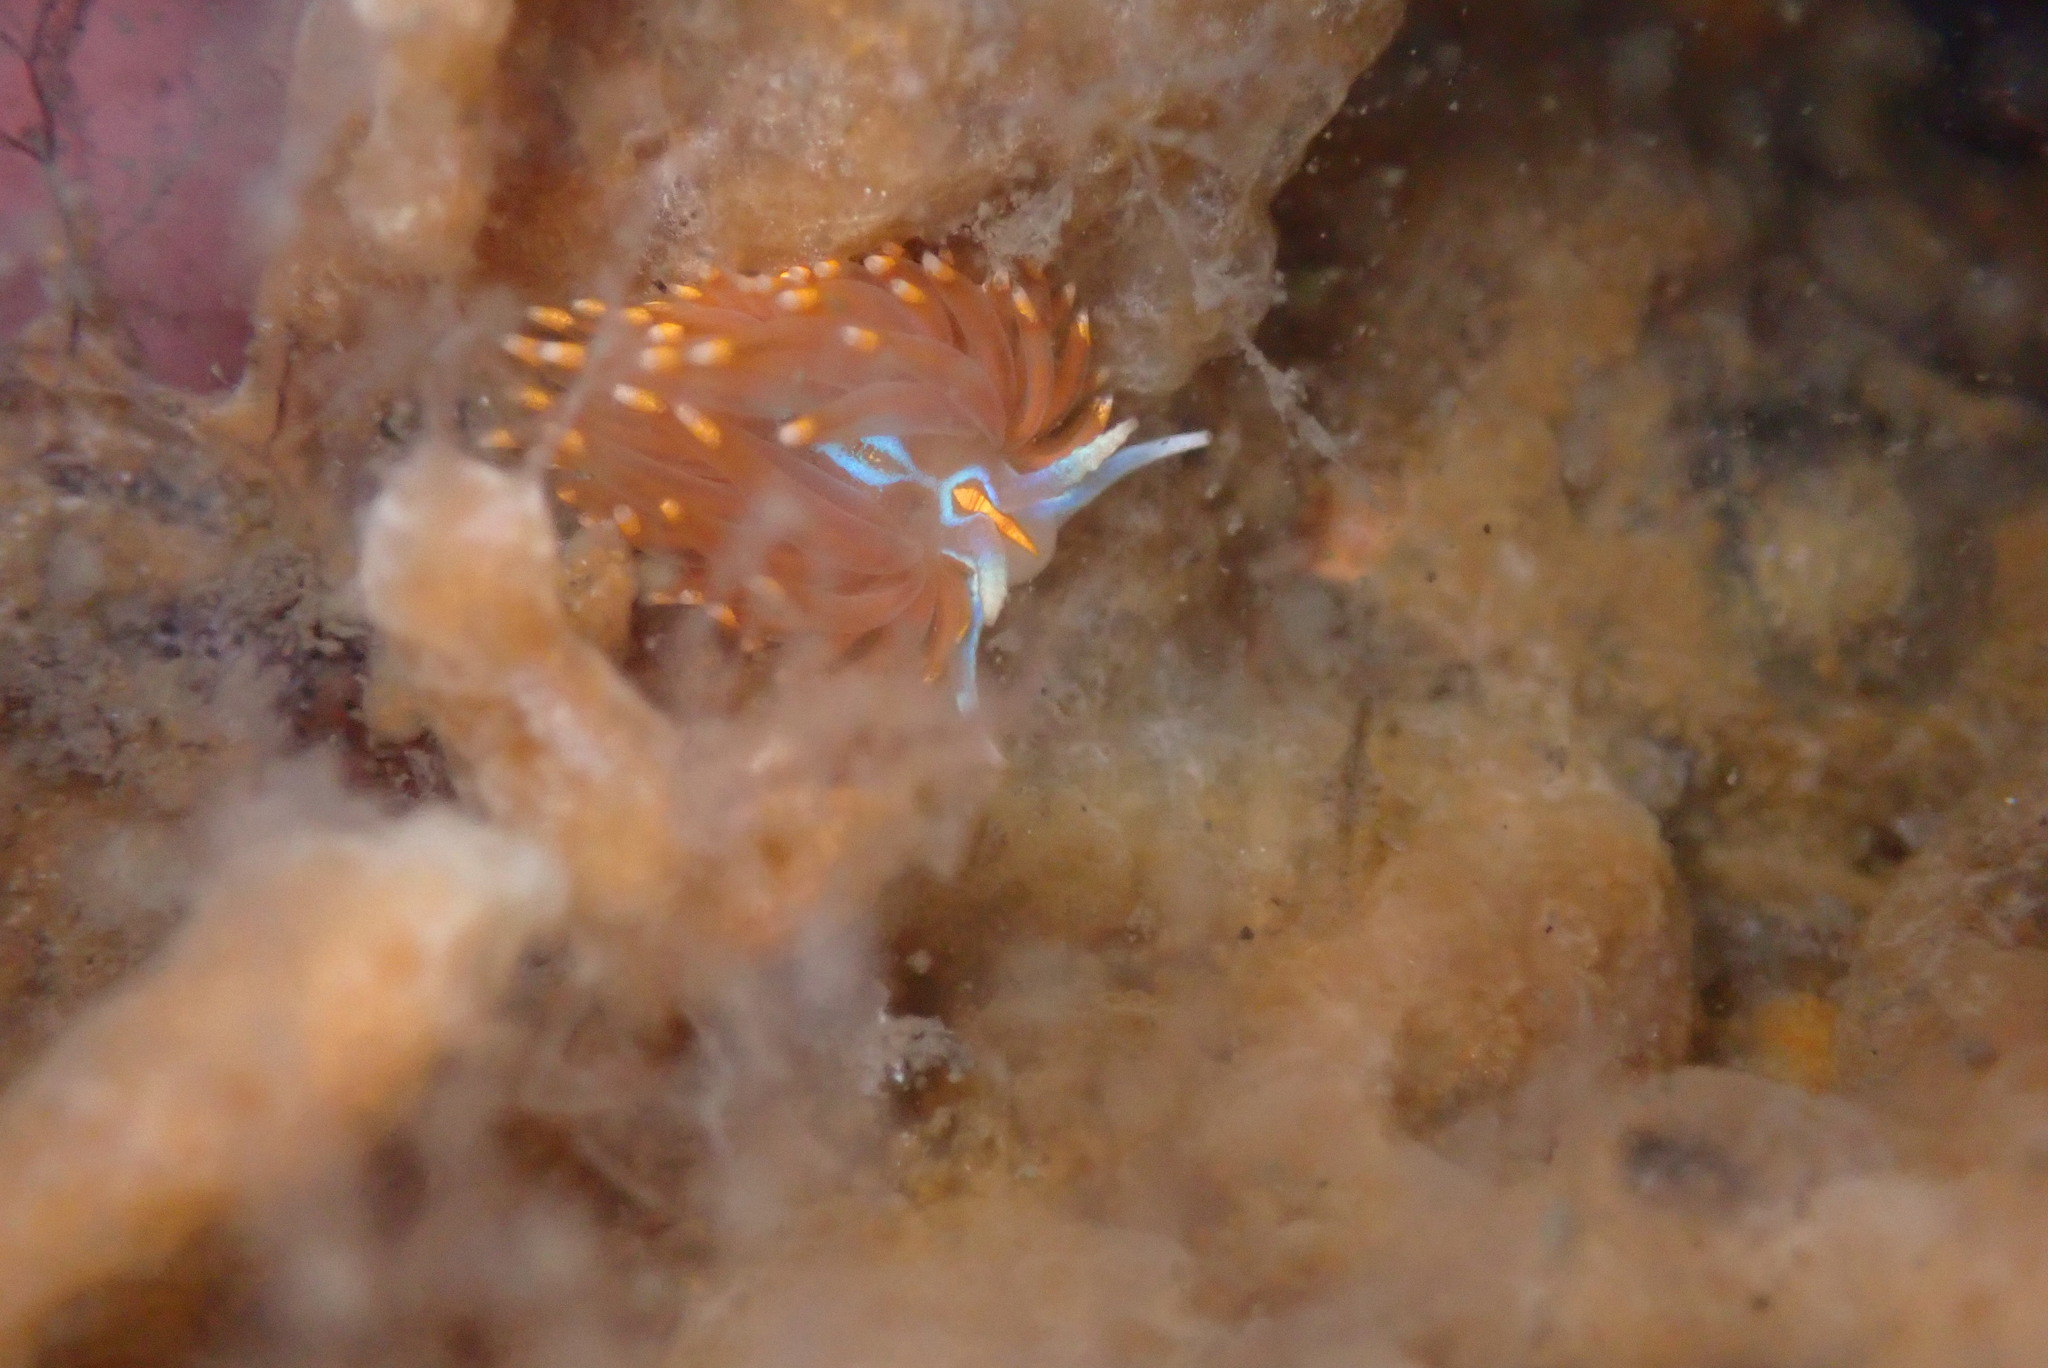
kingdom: Animalia
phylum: Mollusca
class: Gastropoda
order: Nudibranchia
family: Myrrhinidae
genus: Hermissenda
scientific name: Hermissenda opalescens
